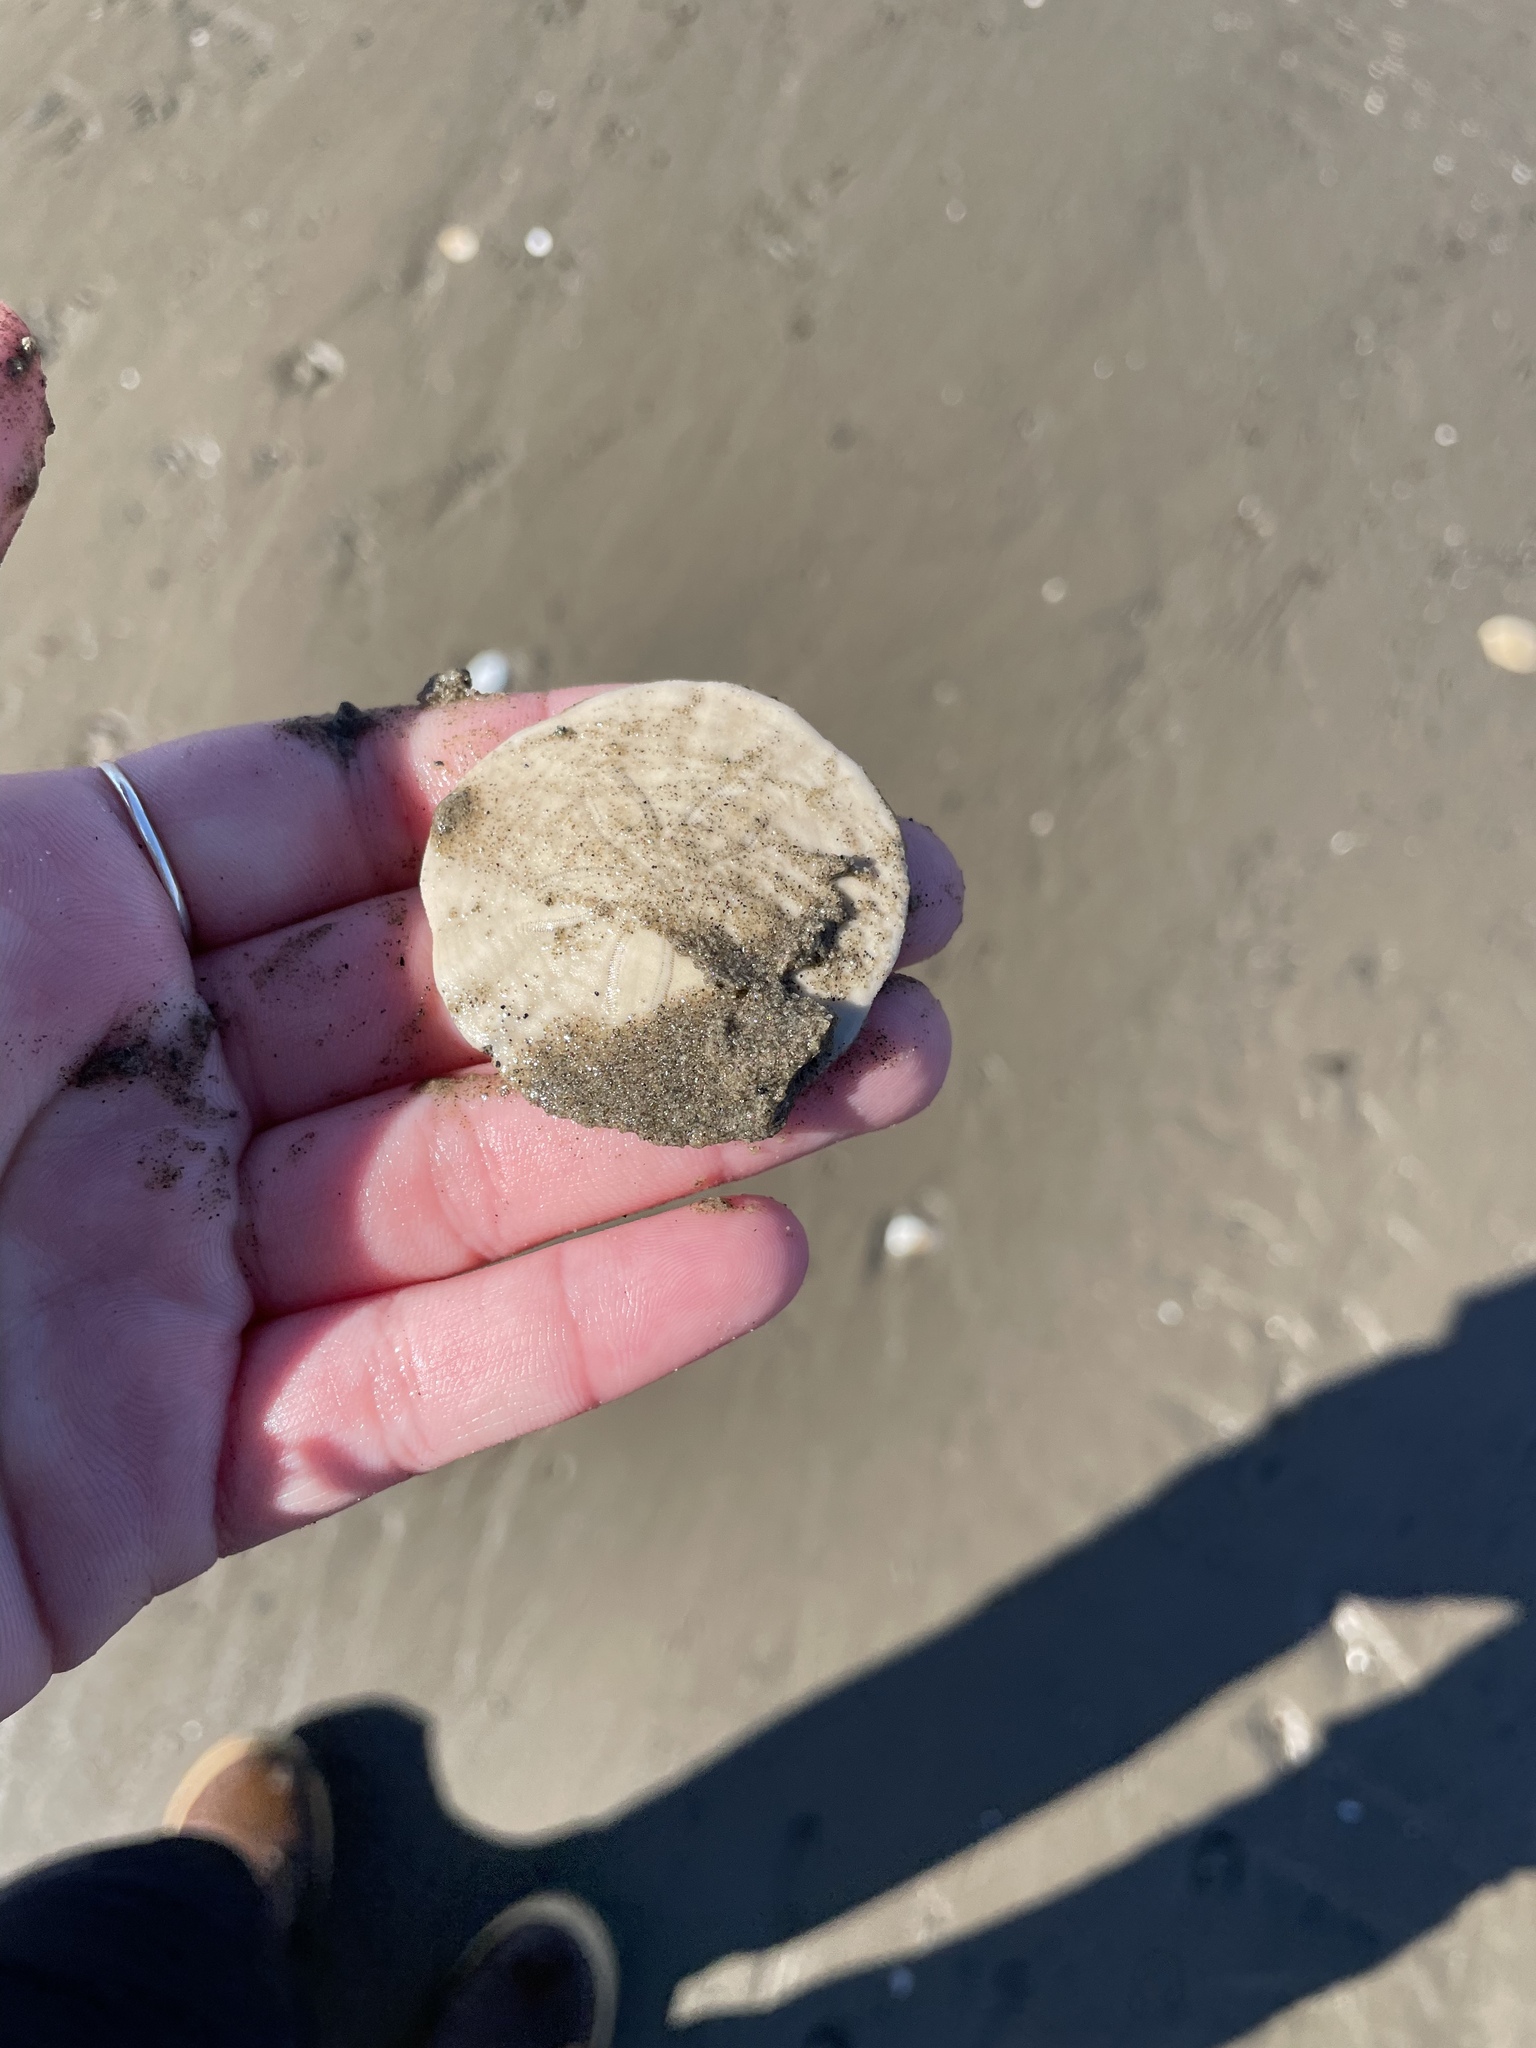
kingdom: Animalia
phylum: Echinodermata
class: Echinoidea
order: Echinolampadacea
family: Echinarachniidae
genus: Echinarachnius
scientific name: Echinarachnius parma
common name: Common sand dollar
